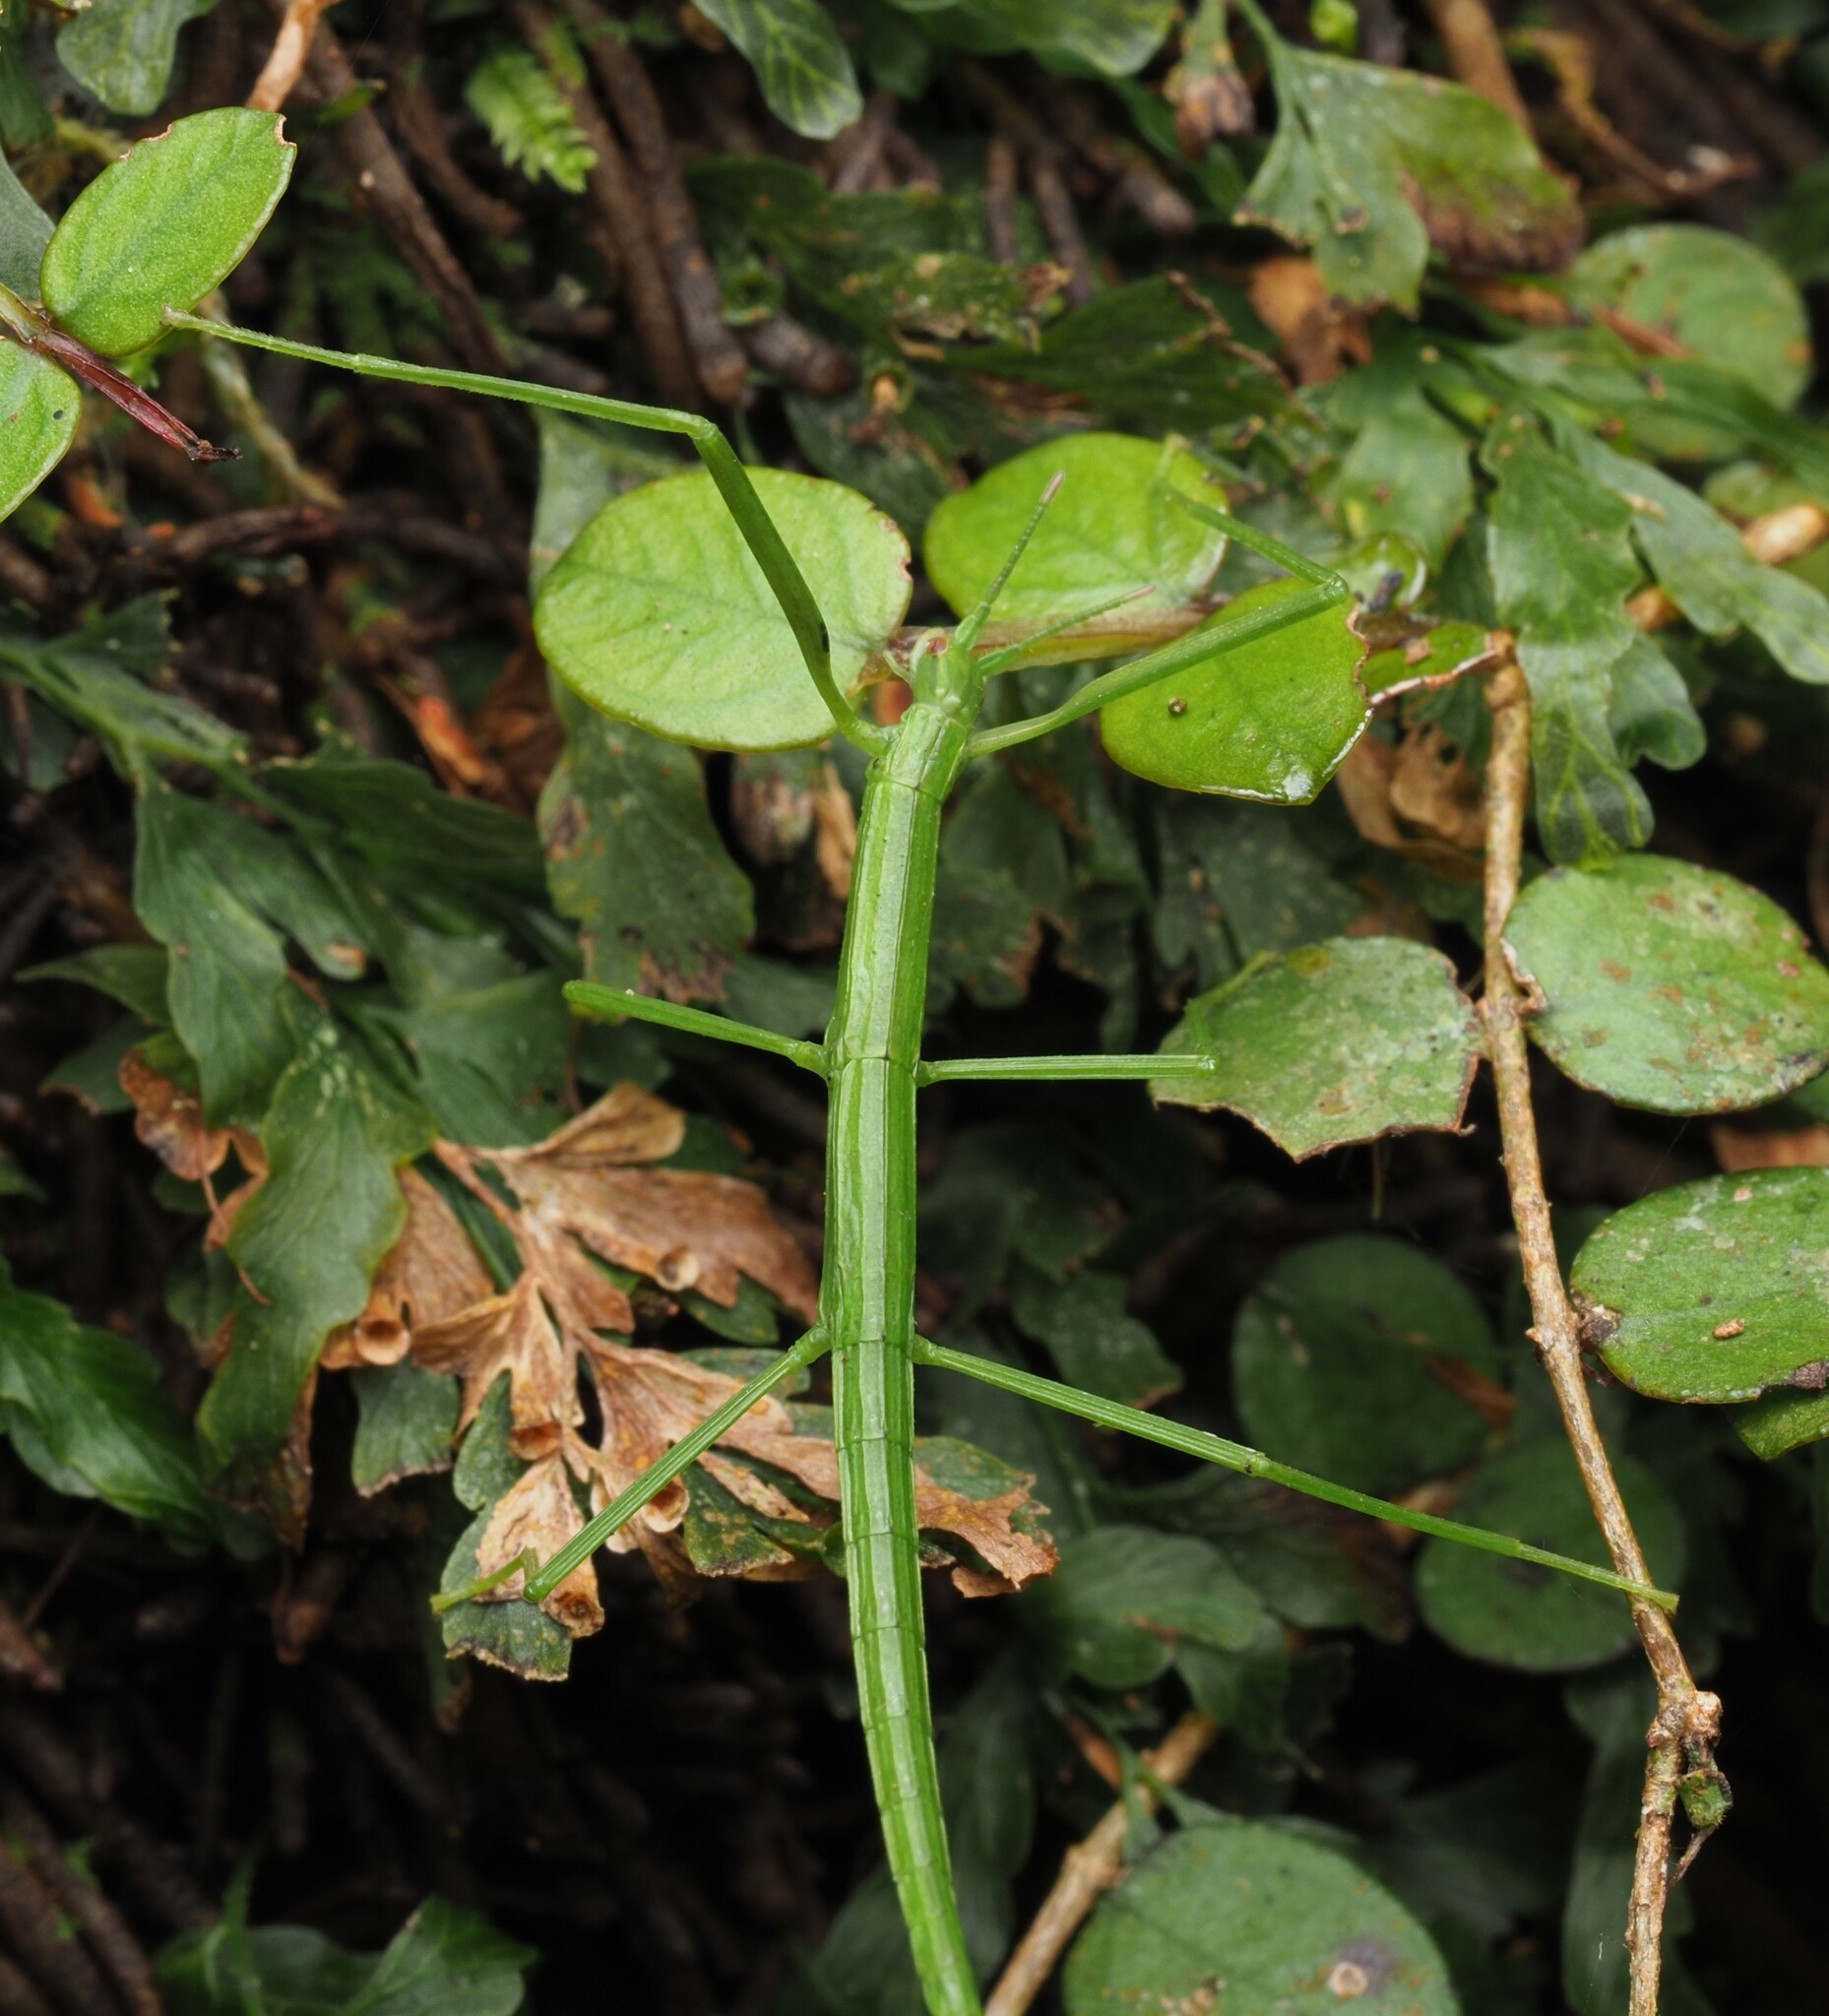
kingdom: Animalia
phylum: Arthropoda
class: Insecta
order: Phasmida
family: Phasmatidae
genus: Clitarchus
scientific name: Clitarchus hookeri
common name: Smooth stick insect
